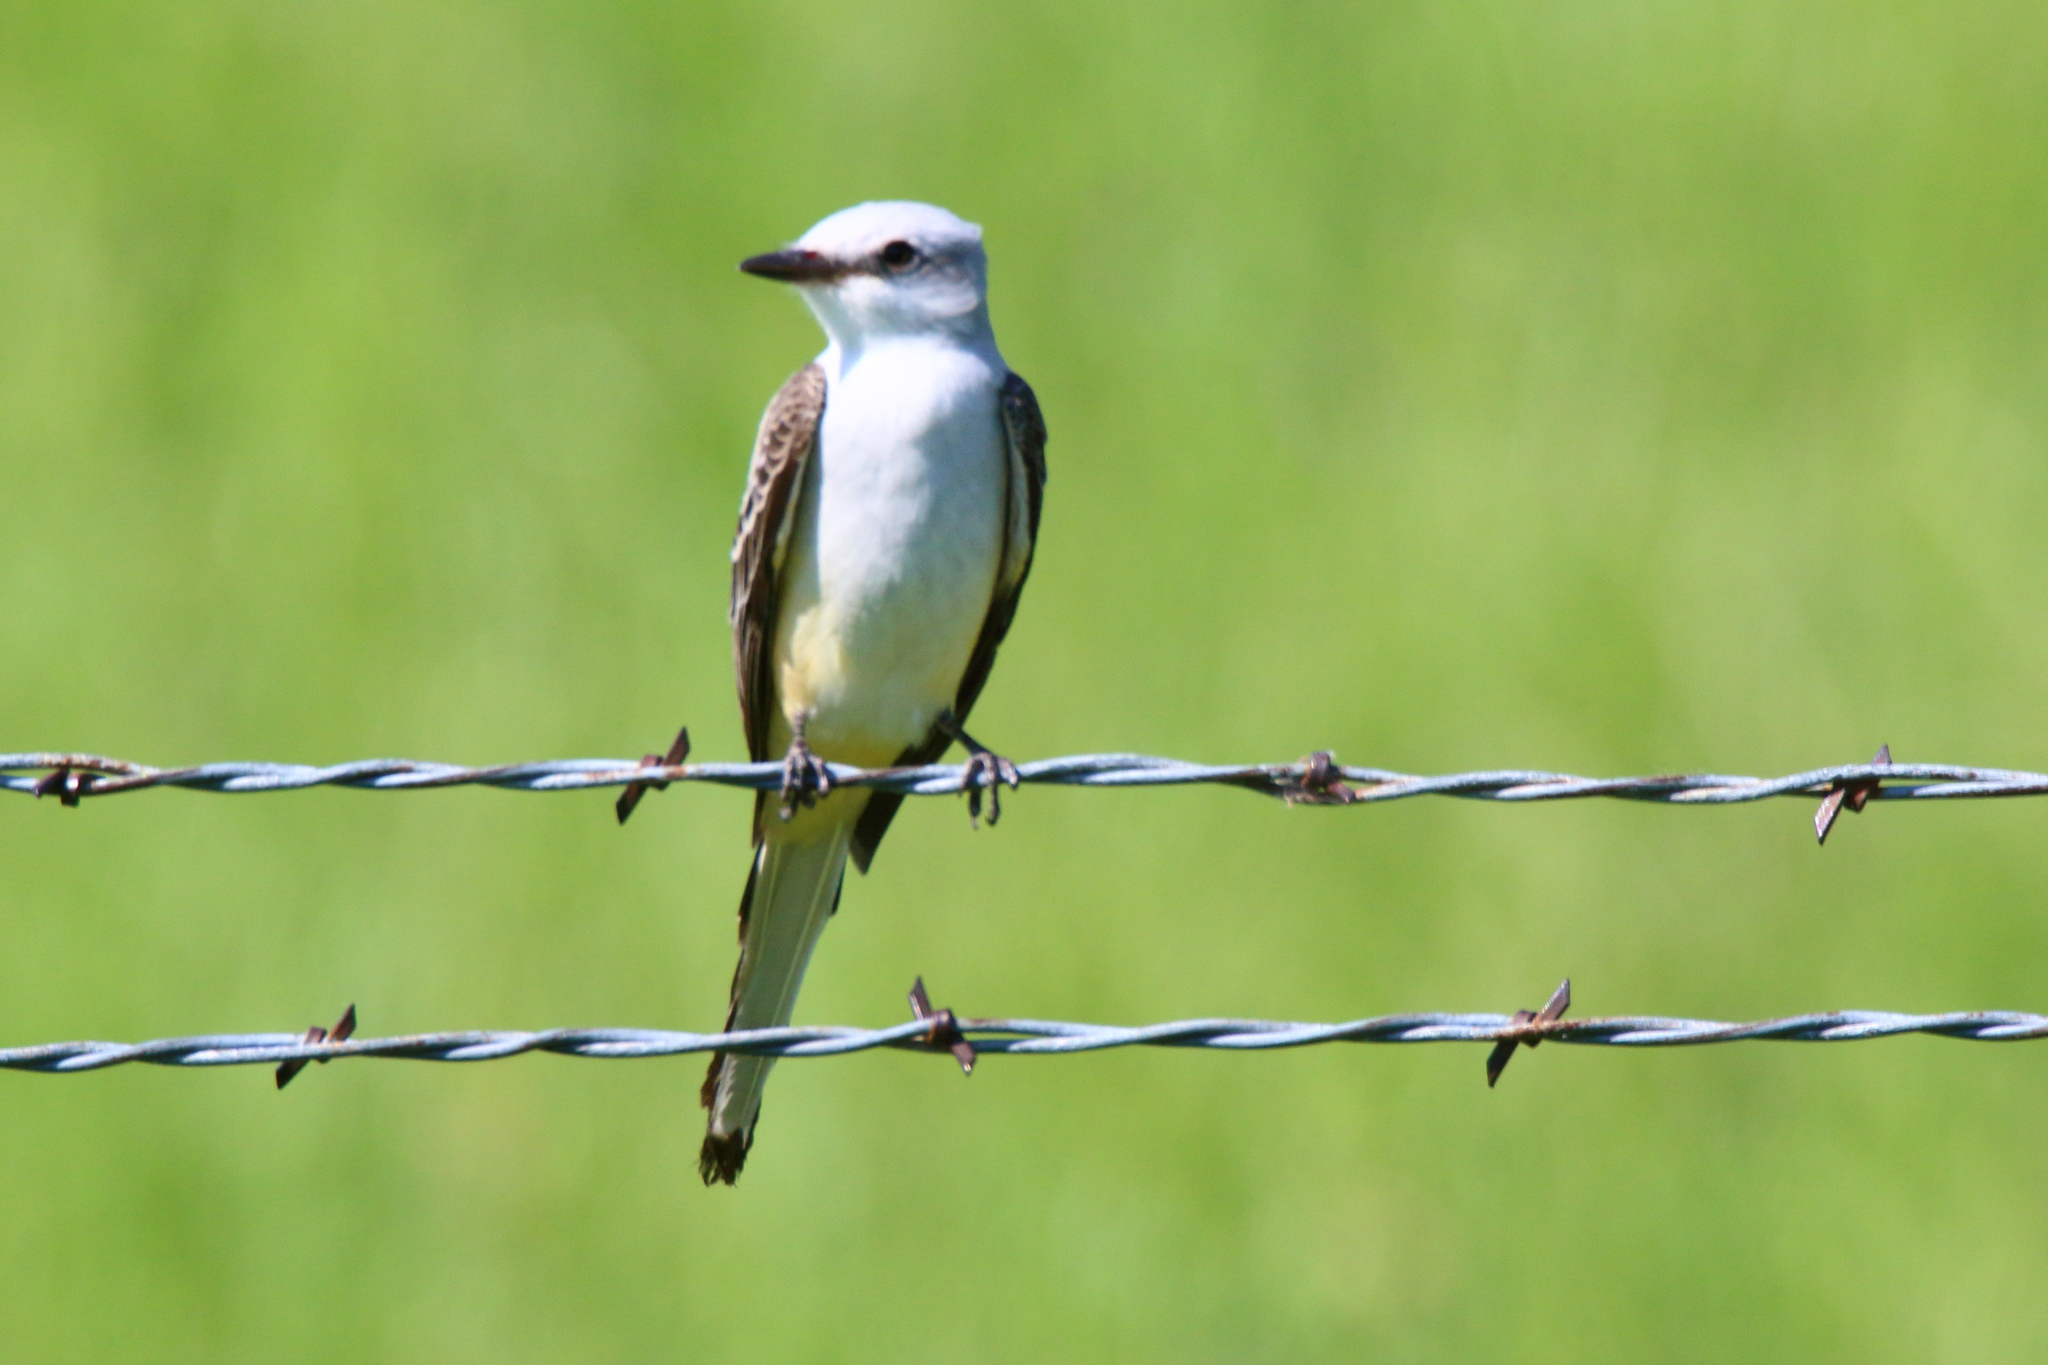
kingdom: Animalia
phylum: Chordata
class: Aves
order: Passeriformes
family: Tyrannidae
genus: Tyrannus
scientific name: Tyrannus forficatus
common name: Scissor-tailed flycatcher
